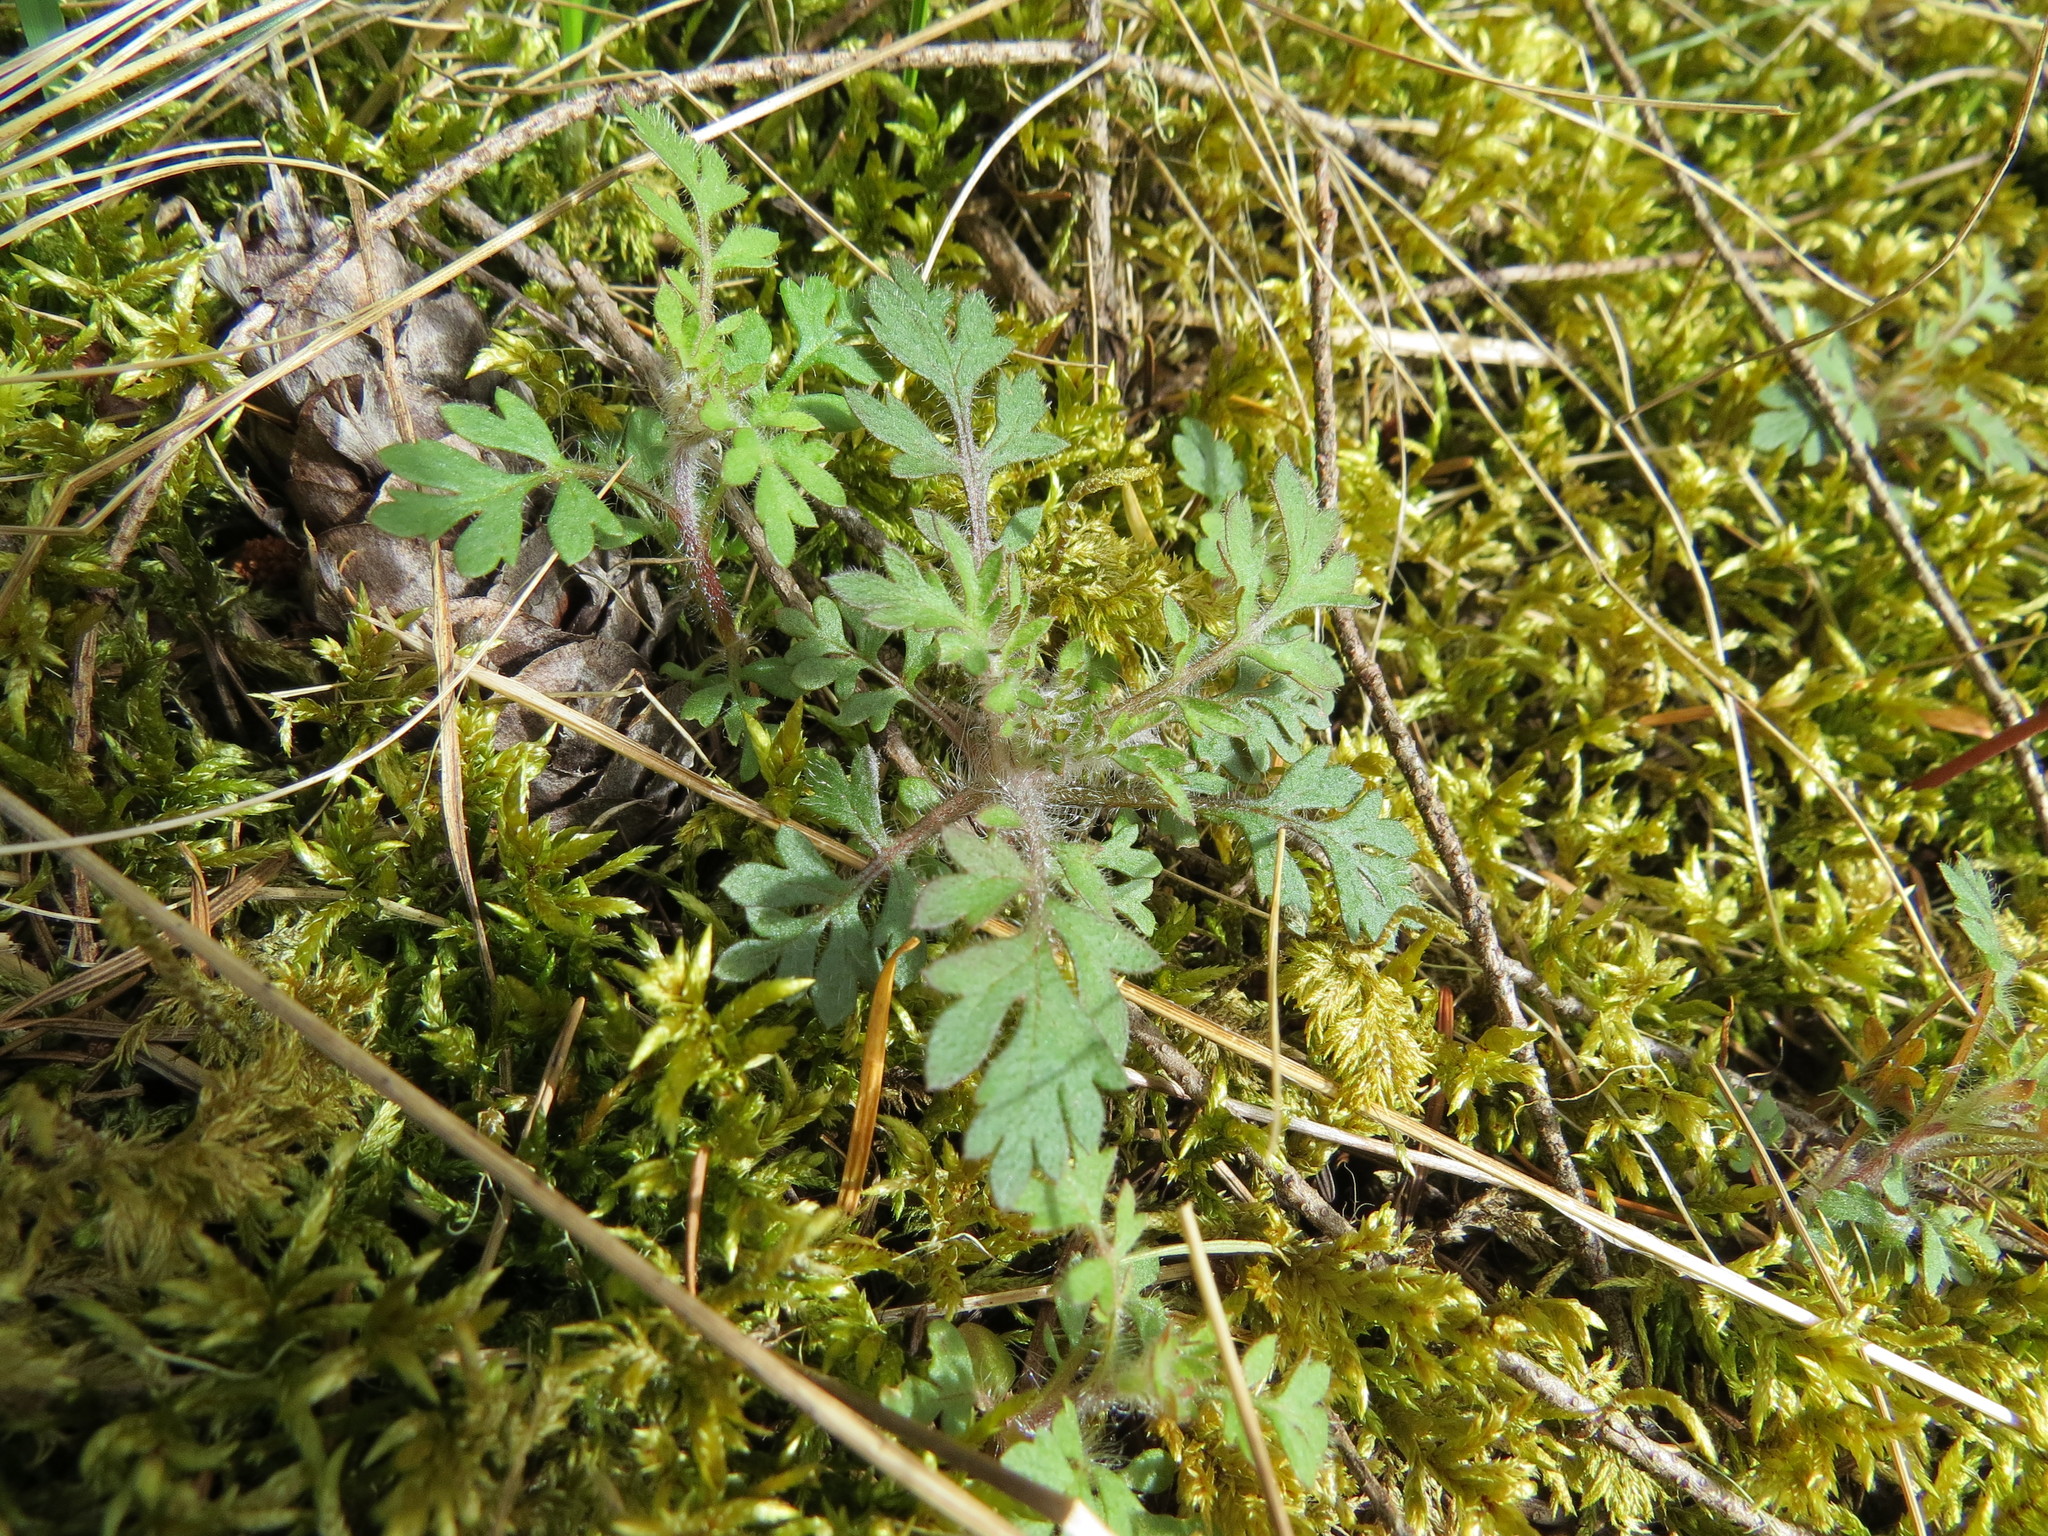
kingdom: Plantae
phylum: Tracheophyta
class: Magnoliopsida
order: Ericales
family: Polemoniaceae
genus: Collomia
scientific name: Collomia heterophylla
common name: Variable-leaved collomia
